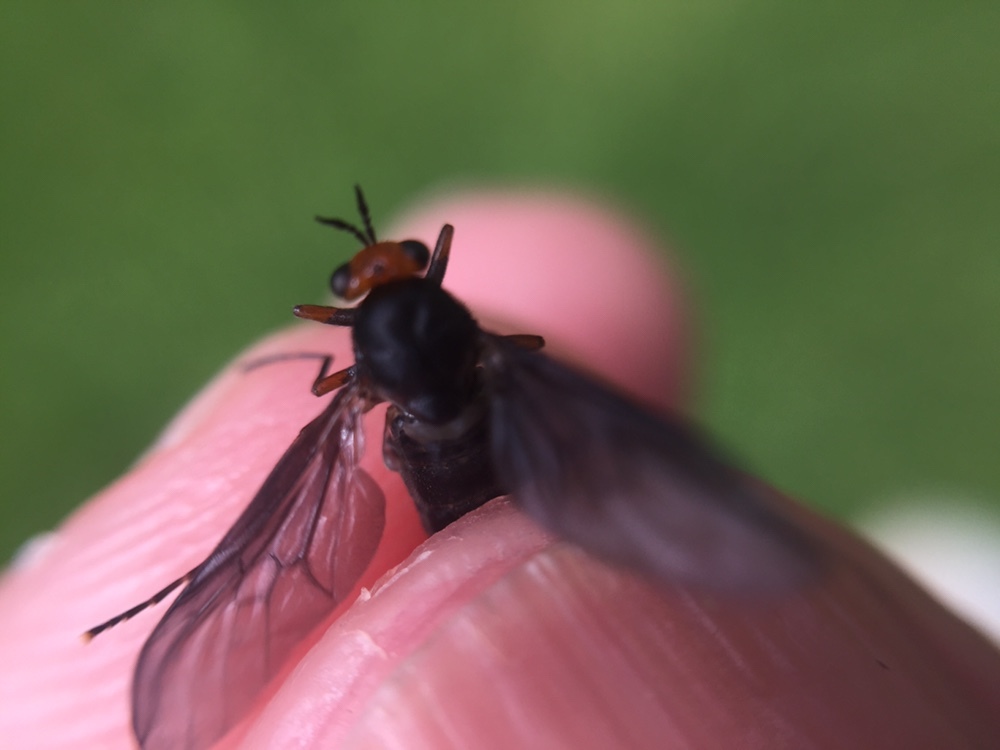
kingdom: Animalia
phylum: Arthropoda
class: Insecta
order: Diptera
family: Stratiomyidae
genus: Inopus
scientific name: Inopus rubriceps
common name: Soldier fly
